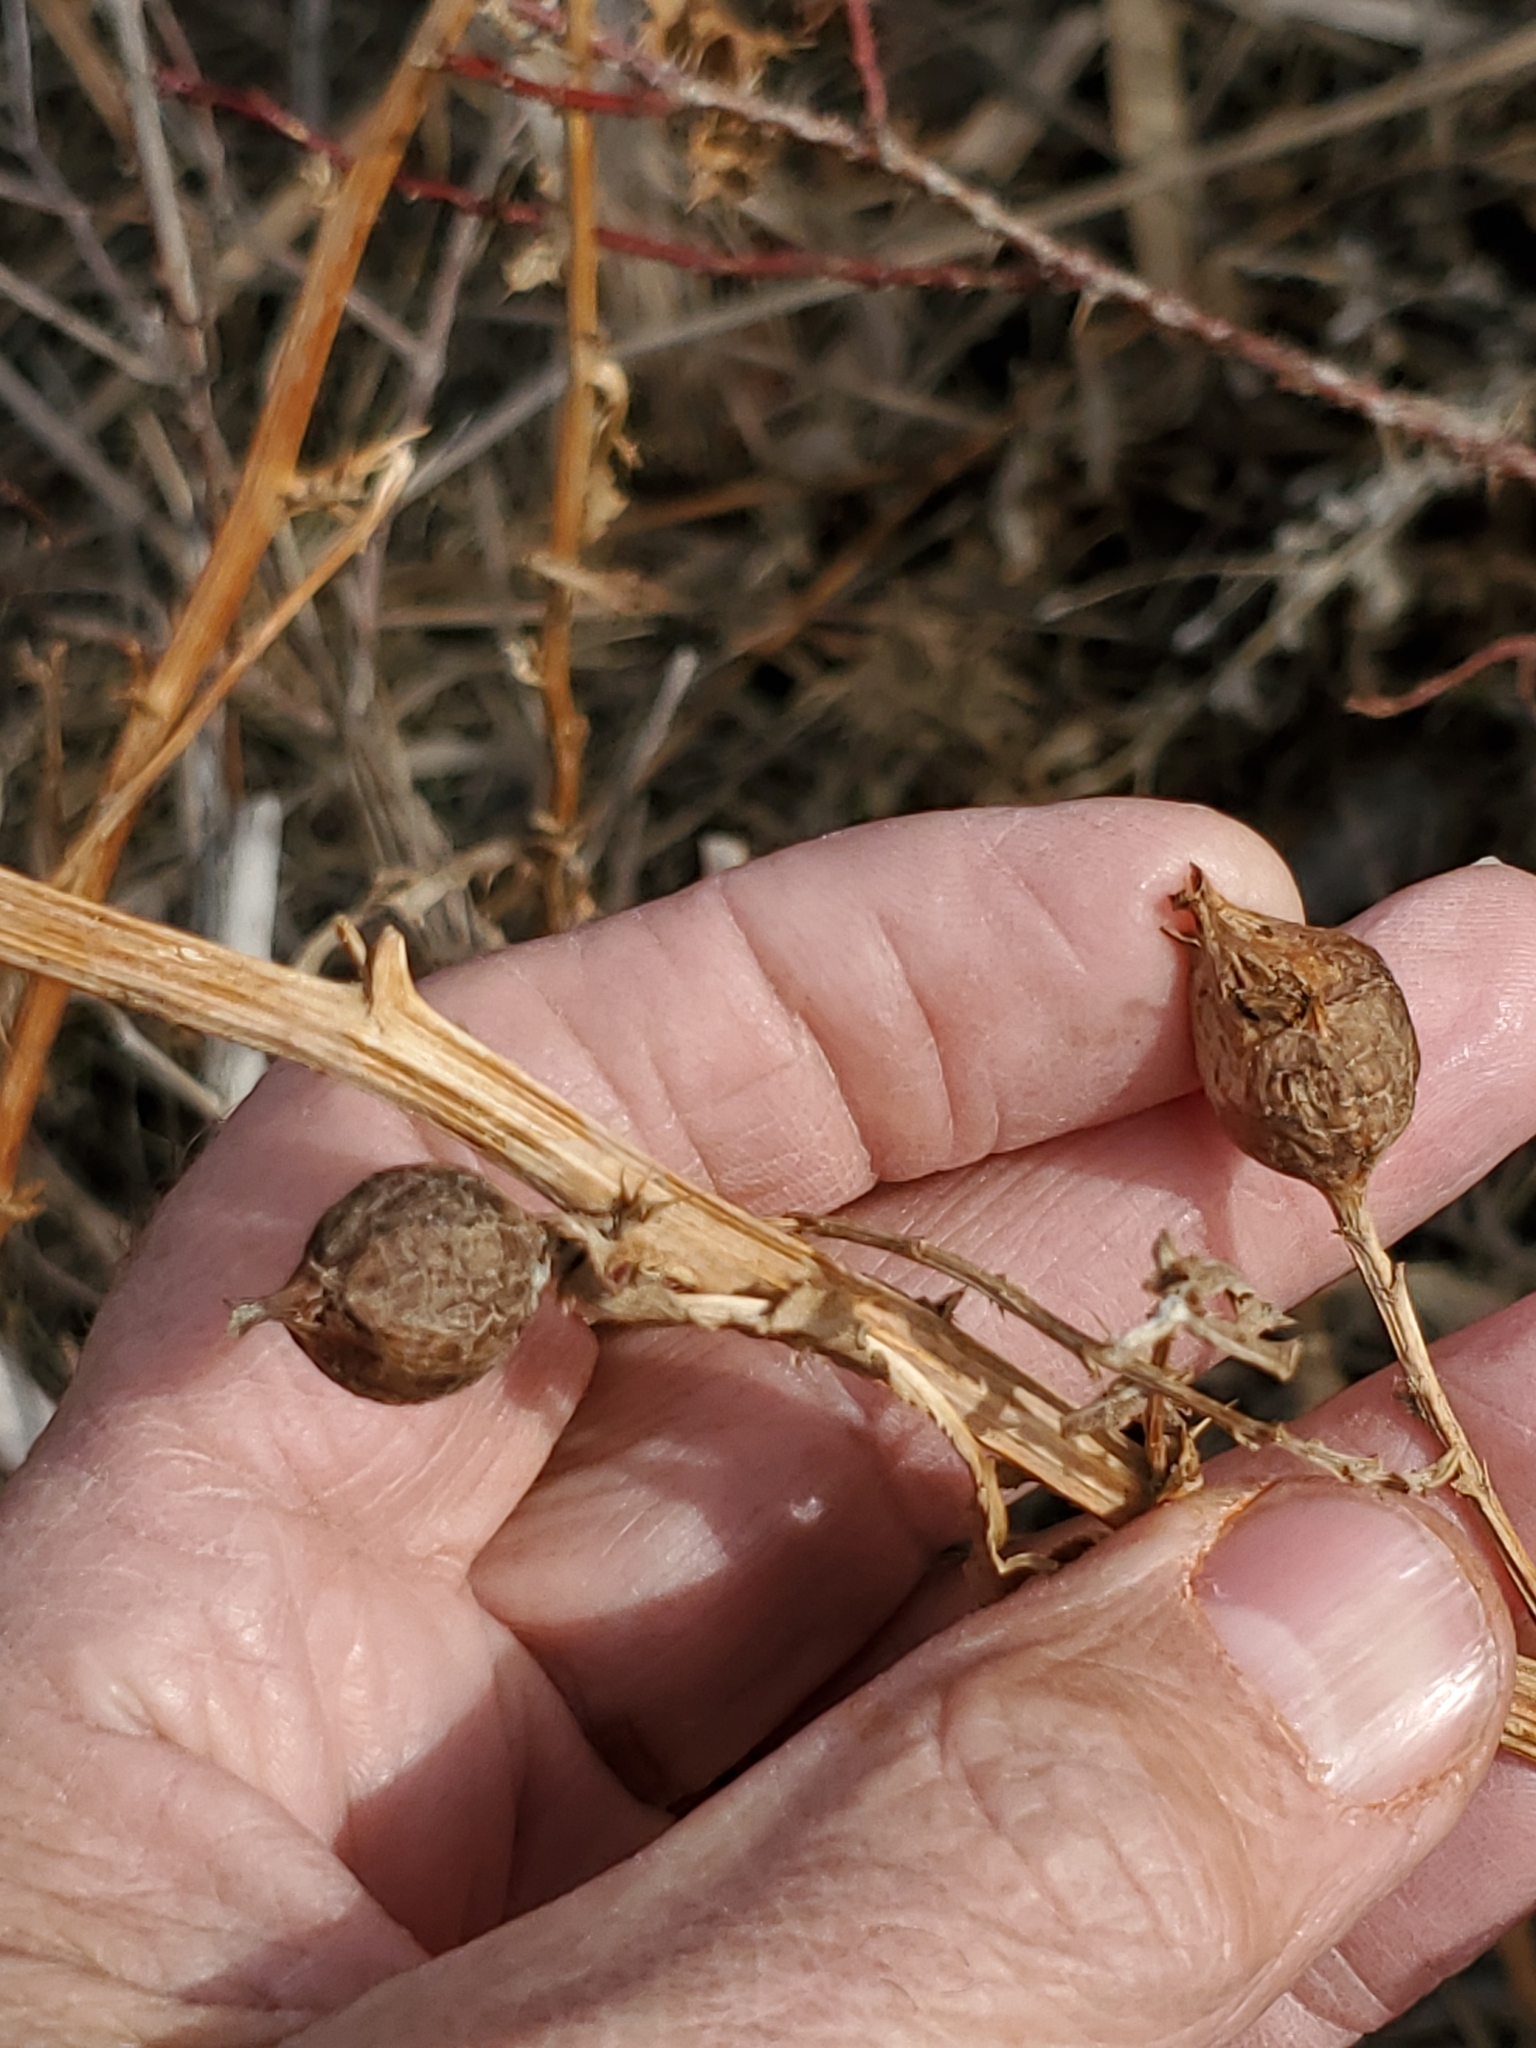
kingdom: Animalia
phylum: Arthropoda
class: Insecta
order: Diptera
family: Tephritidae
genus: Urophora
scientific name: Urophora cardui
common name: Fruit fly
